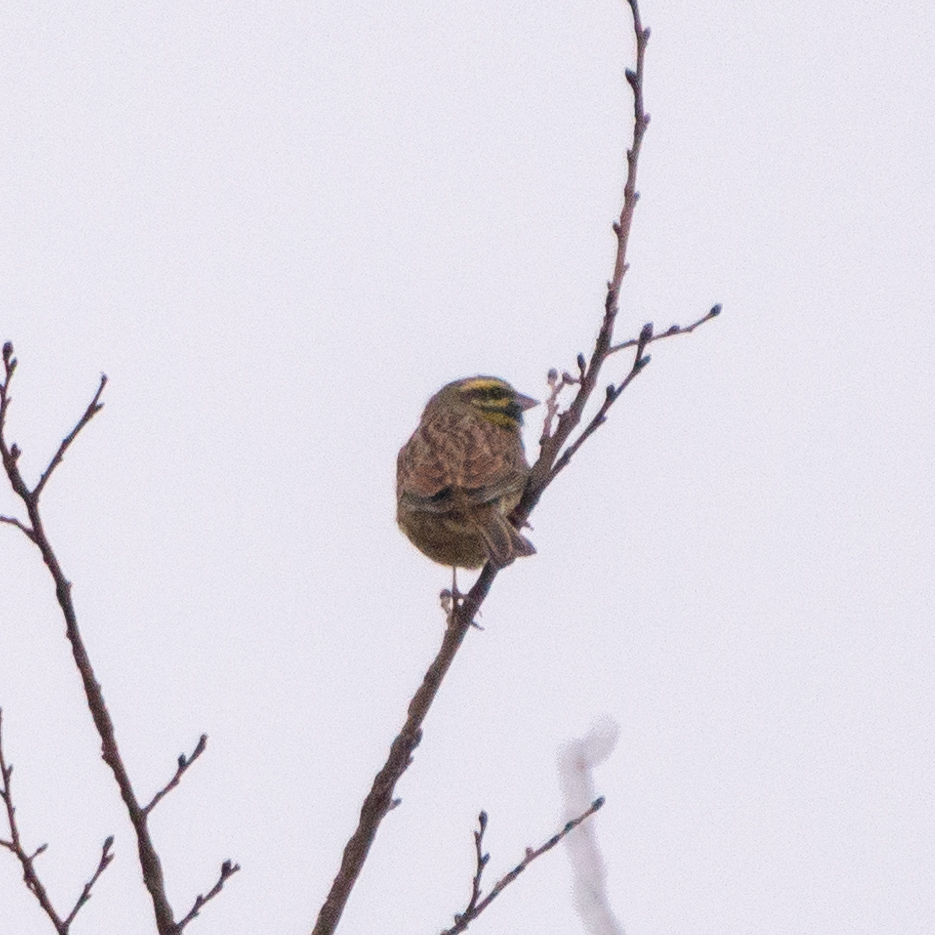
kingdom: Animalia
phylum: Chordata
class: Aves
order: Passeriformes
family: Emberizidae
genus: Emberiza
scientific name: Emberiza cirlus
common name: Cirl bunting
